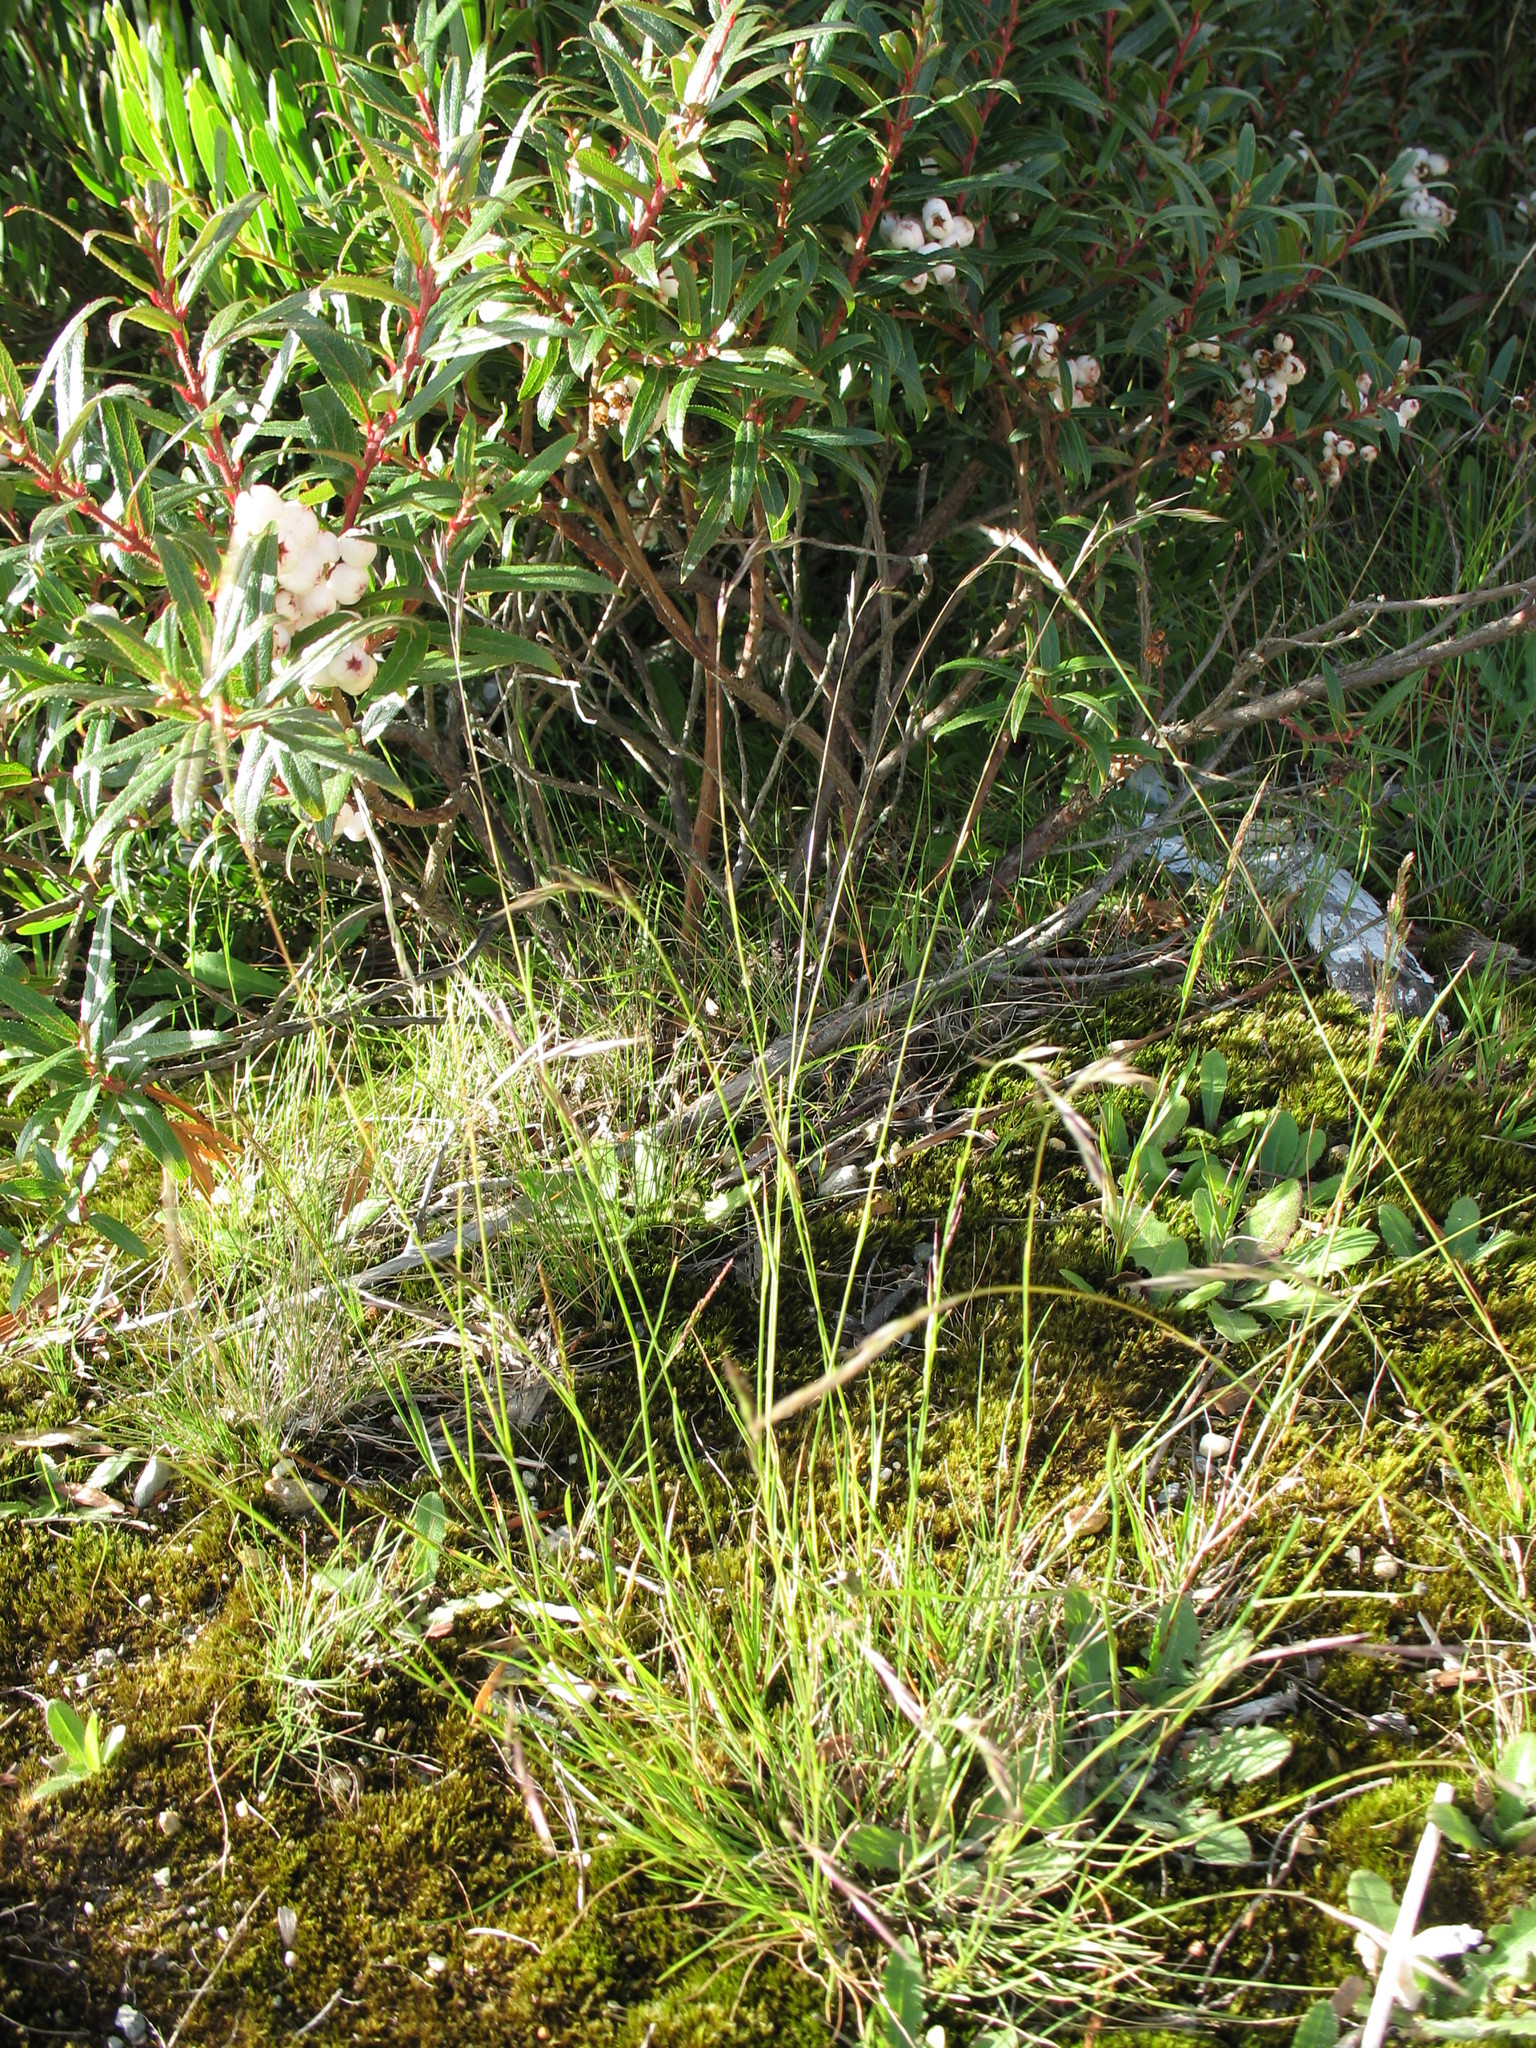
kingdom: Plantae
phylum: Tracheophyta
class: Liliopsida
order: Poales
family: Poaceae
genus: Rytidosperma
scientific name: Rytidosperma penicillatum
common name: Hairy wallaby grass
